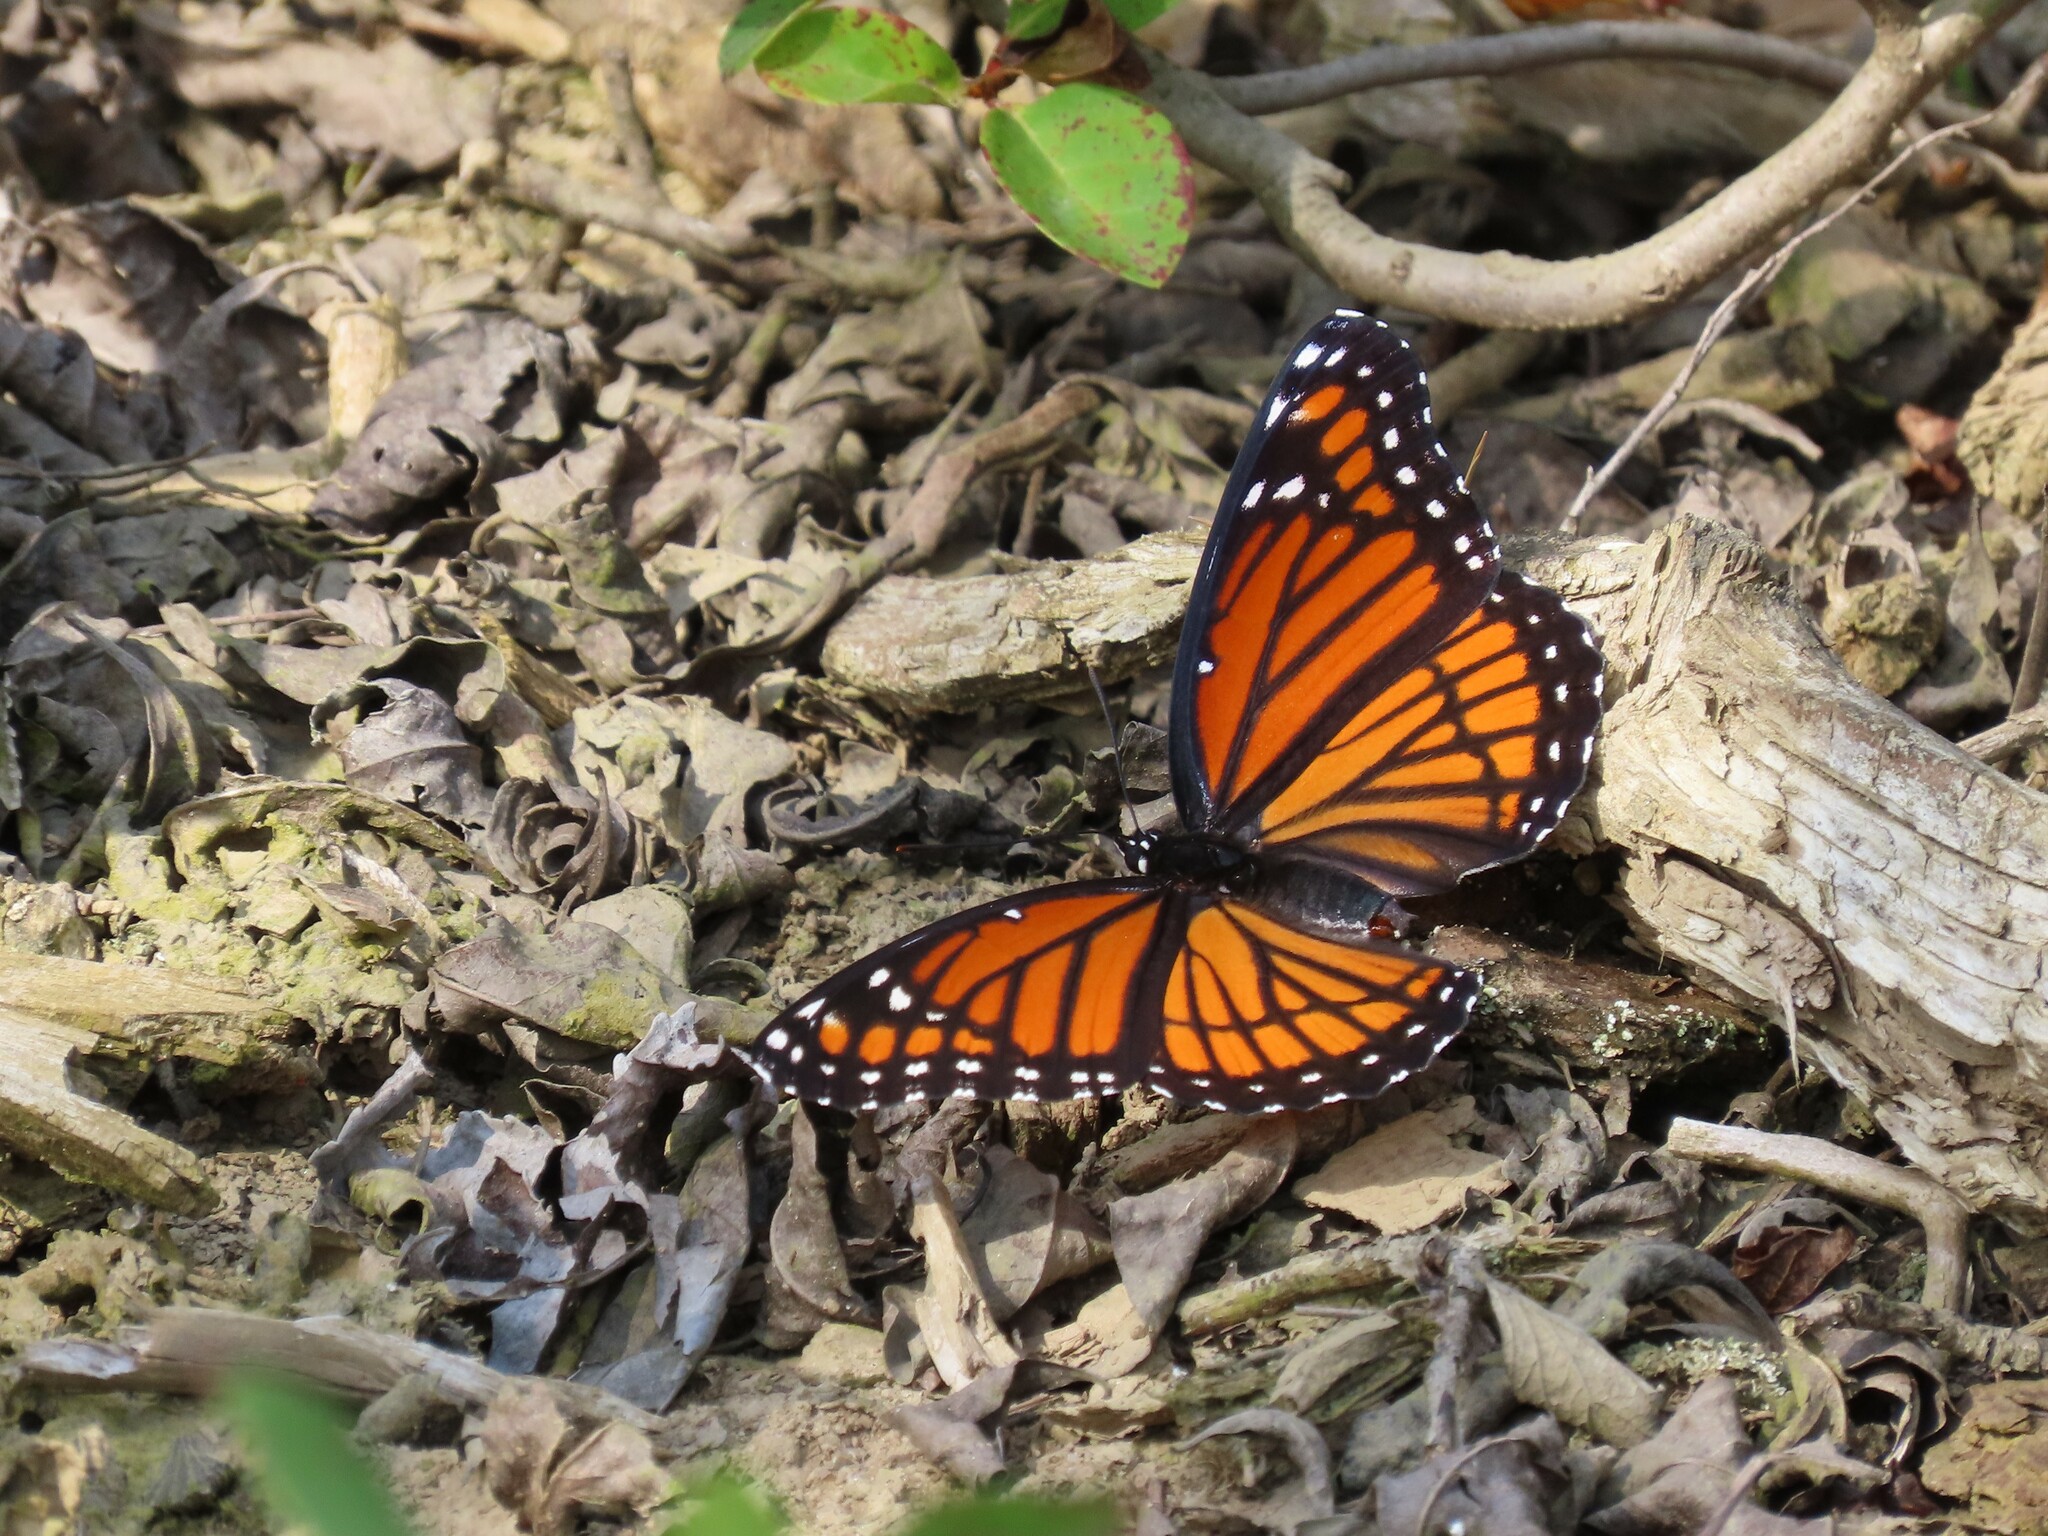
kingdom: Animalia
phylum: Arthropoda
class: Insecta
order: Lepidoptera
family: Nymphalidae
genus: Limenitis
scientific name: Limenitis archippus
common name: Viceroy
